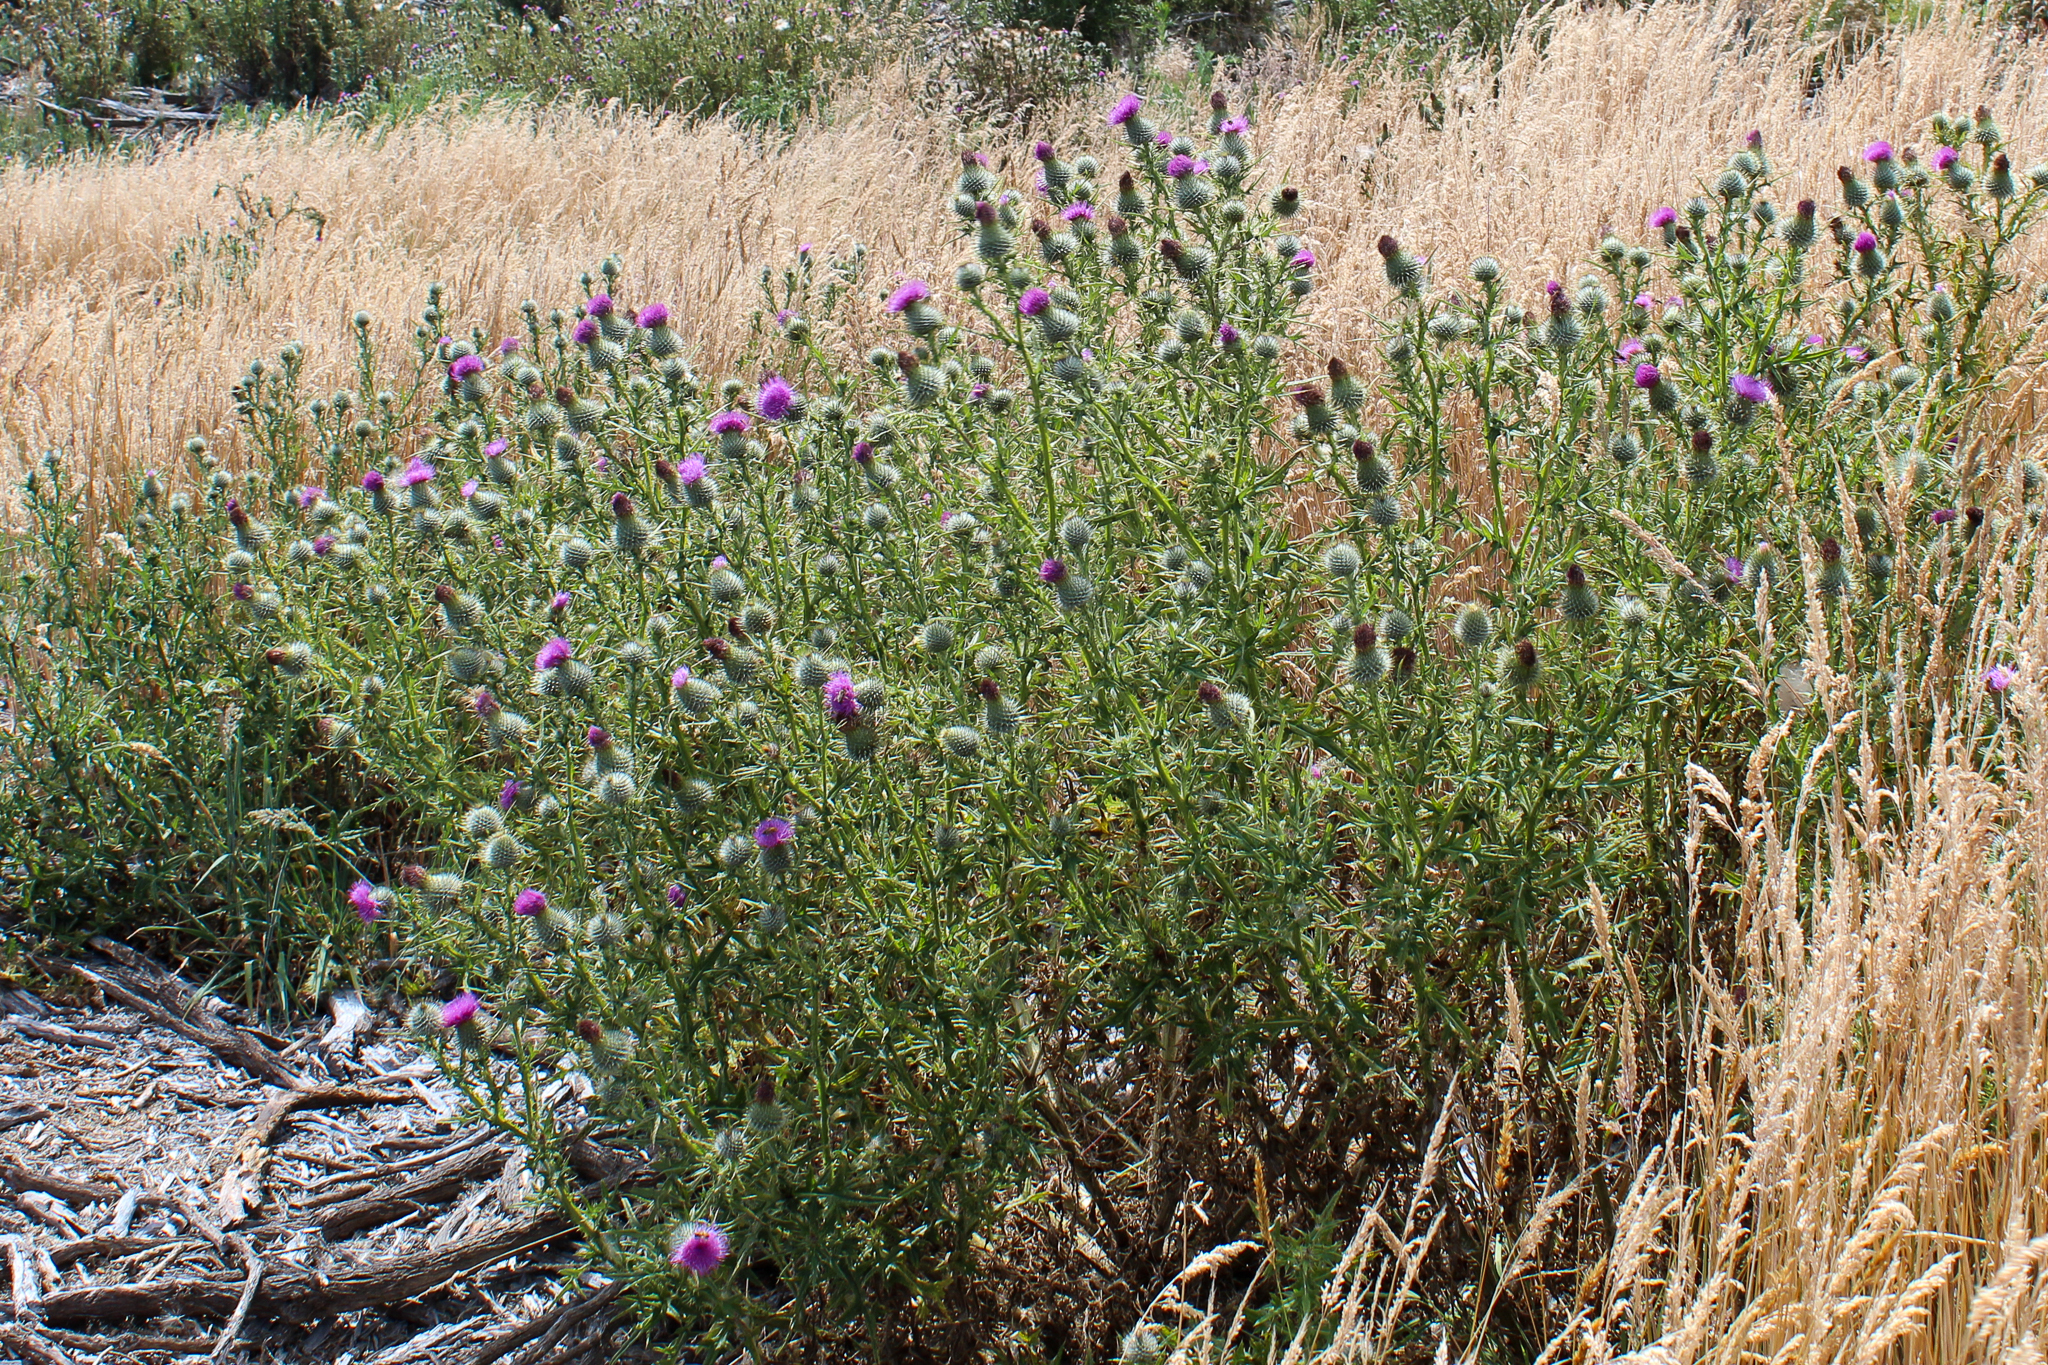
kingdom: Plantae
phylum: Tracheophyta
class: Magnoliopsida
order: Asterales
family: Asteraceae
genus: Cirsium
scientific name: Cirsium vulgare
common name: Bull thistle
